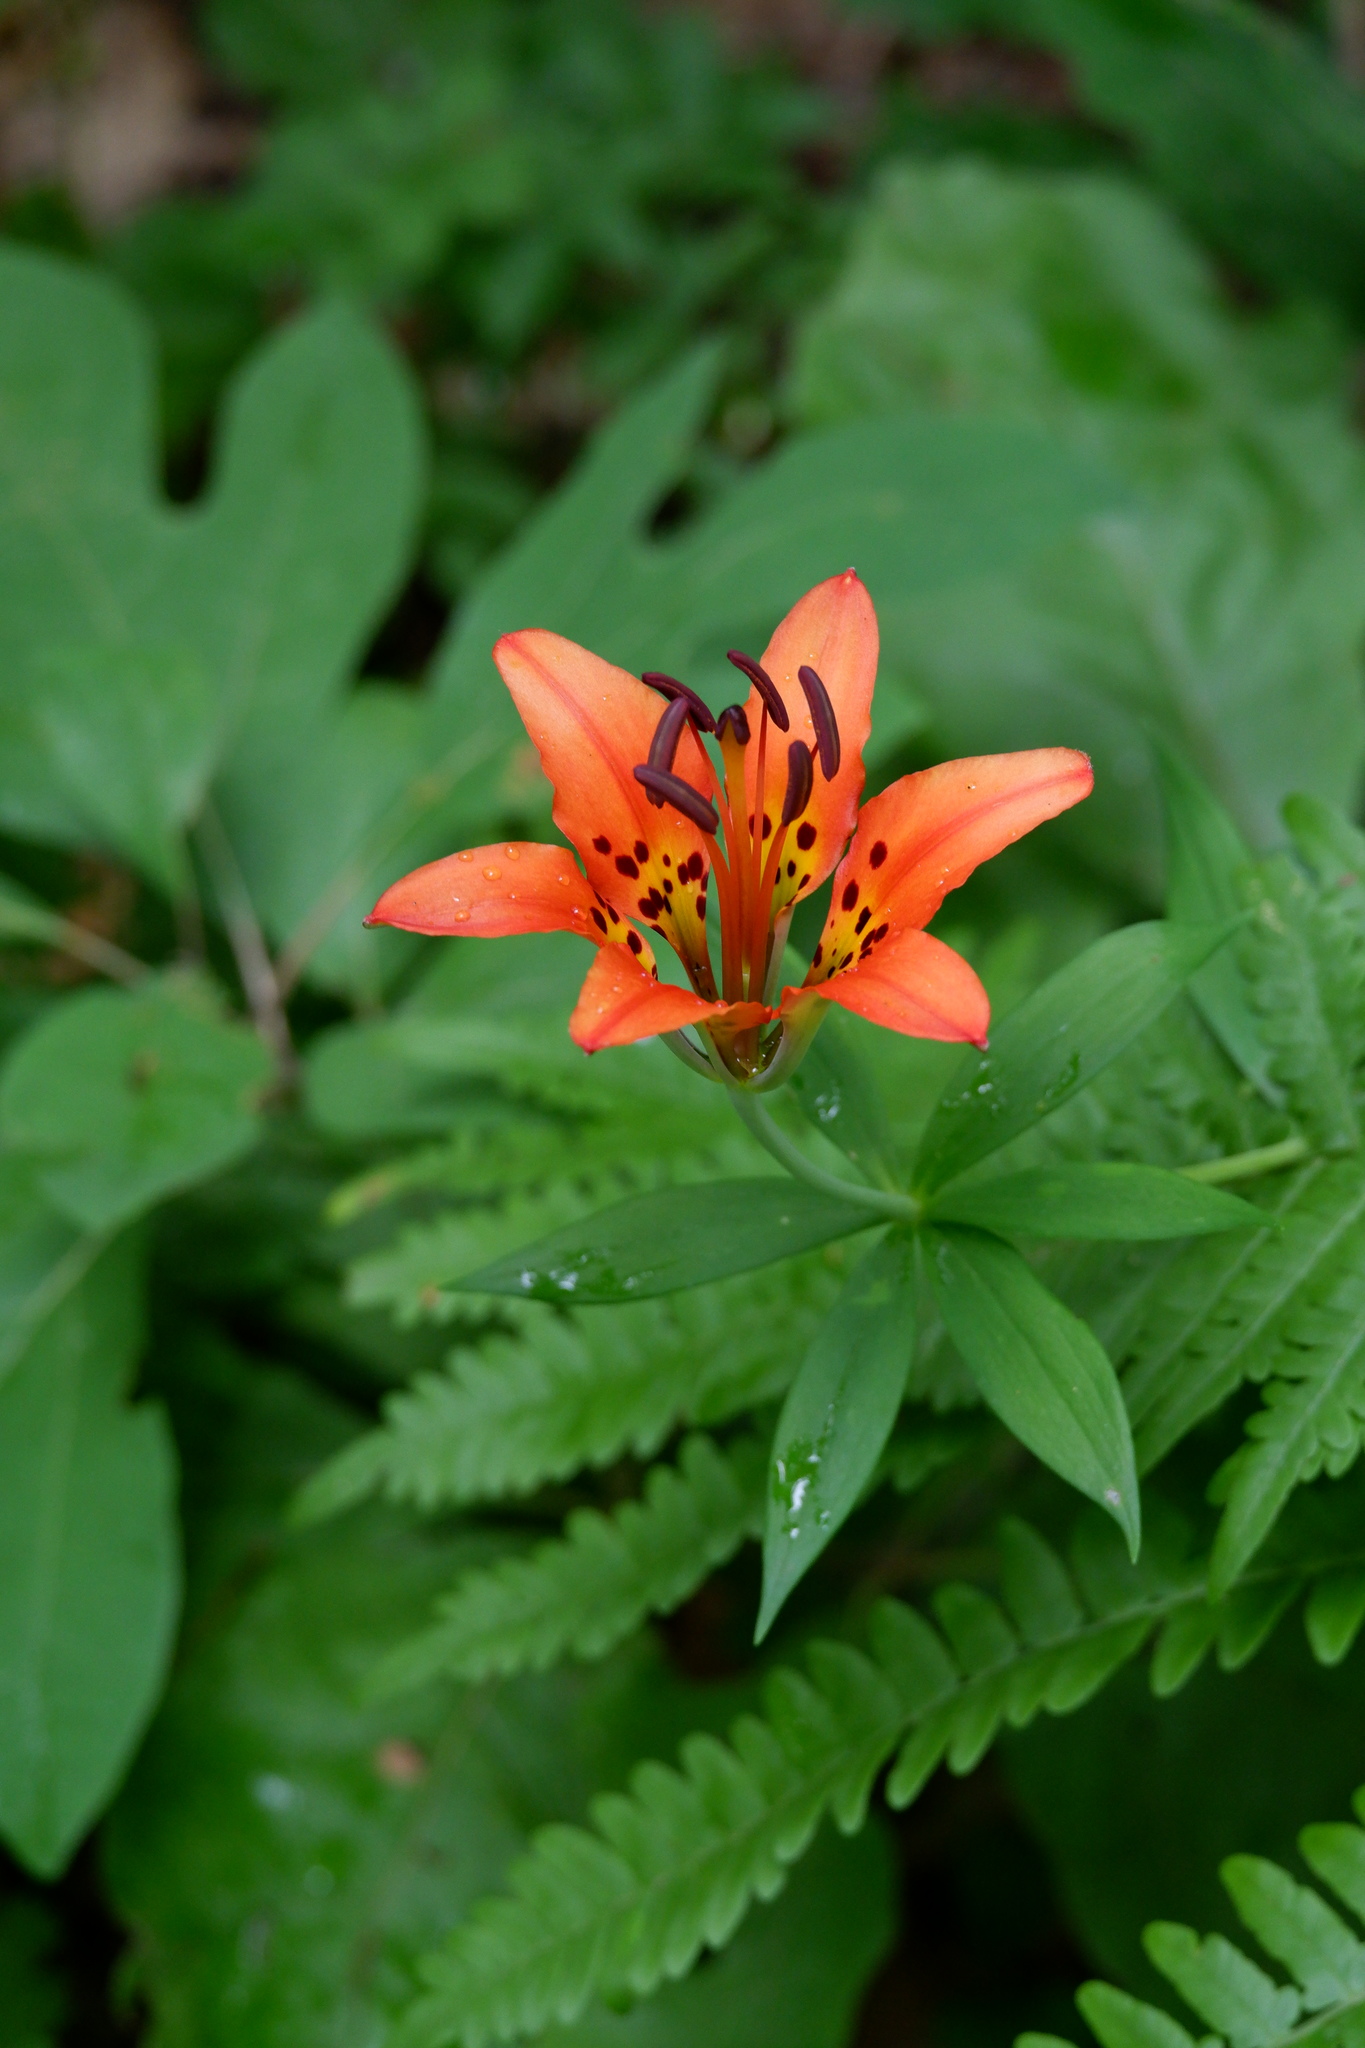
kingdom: Plantae
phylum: Tracheophyta
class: Liliopsida
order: Liliales
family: Liliaceae
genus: Lilium
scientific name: Lilium philadelphicum
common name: Red lily
